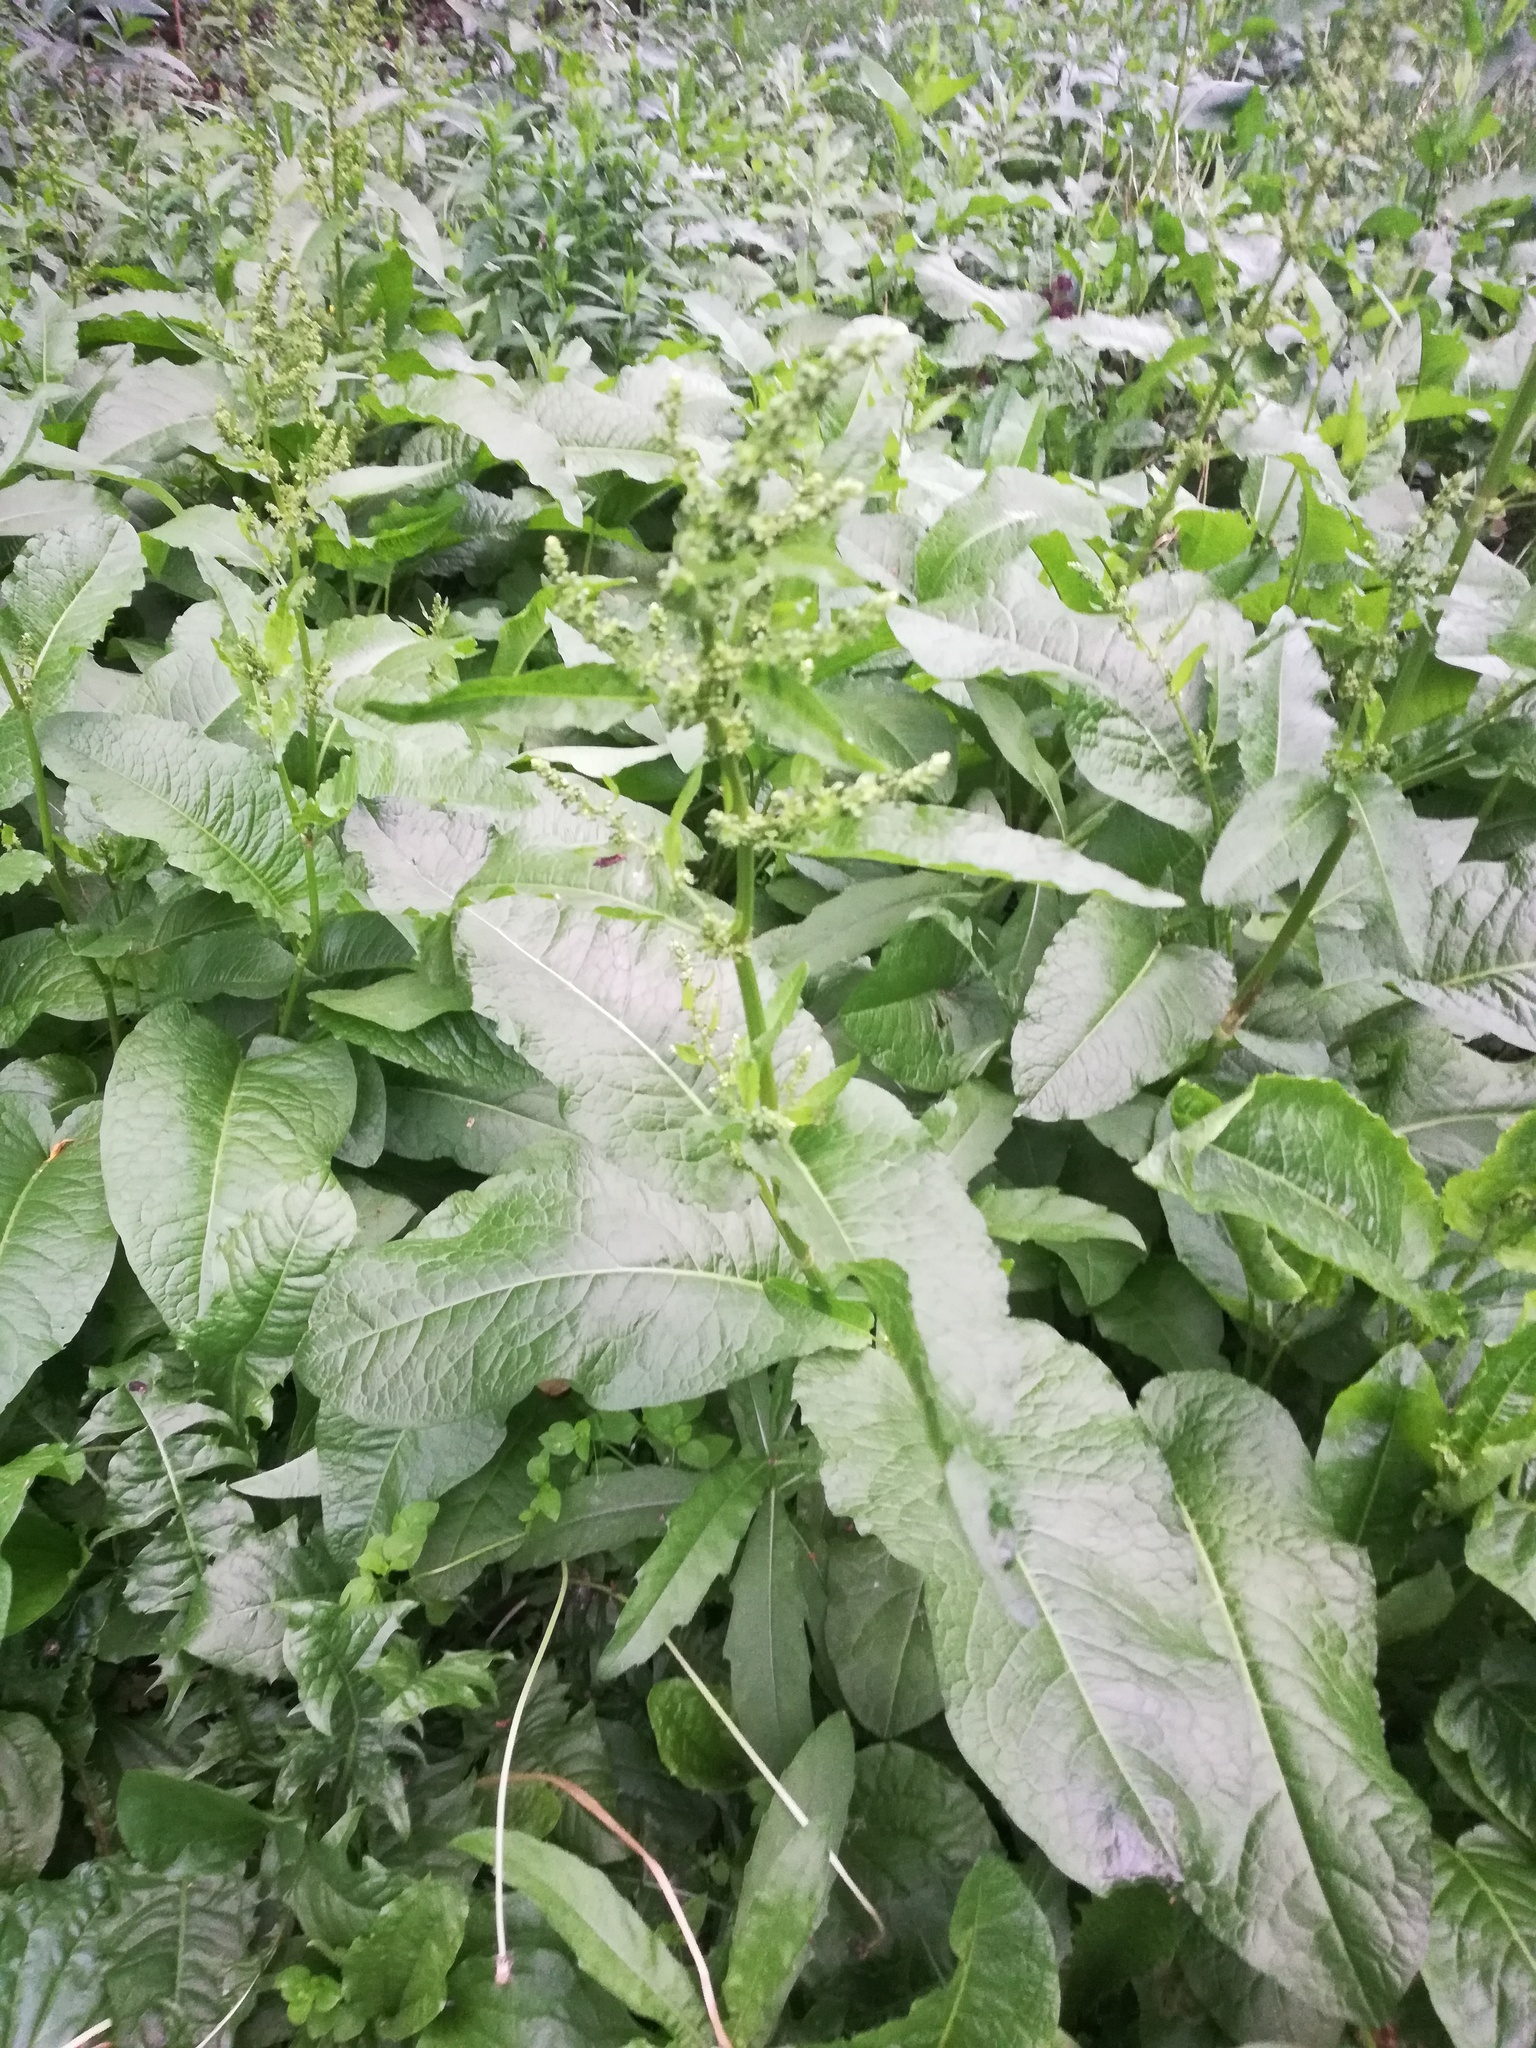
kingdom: Plantae
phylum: Tracheophyta
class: Magnoliopsida
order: Caryophyllales
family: Polygonaceae
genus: Rumex
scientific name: Rumex obtusifolius
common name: Bitter dock
